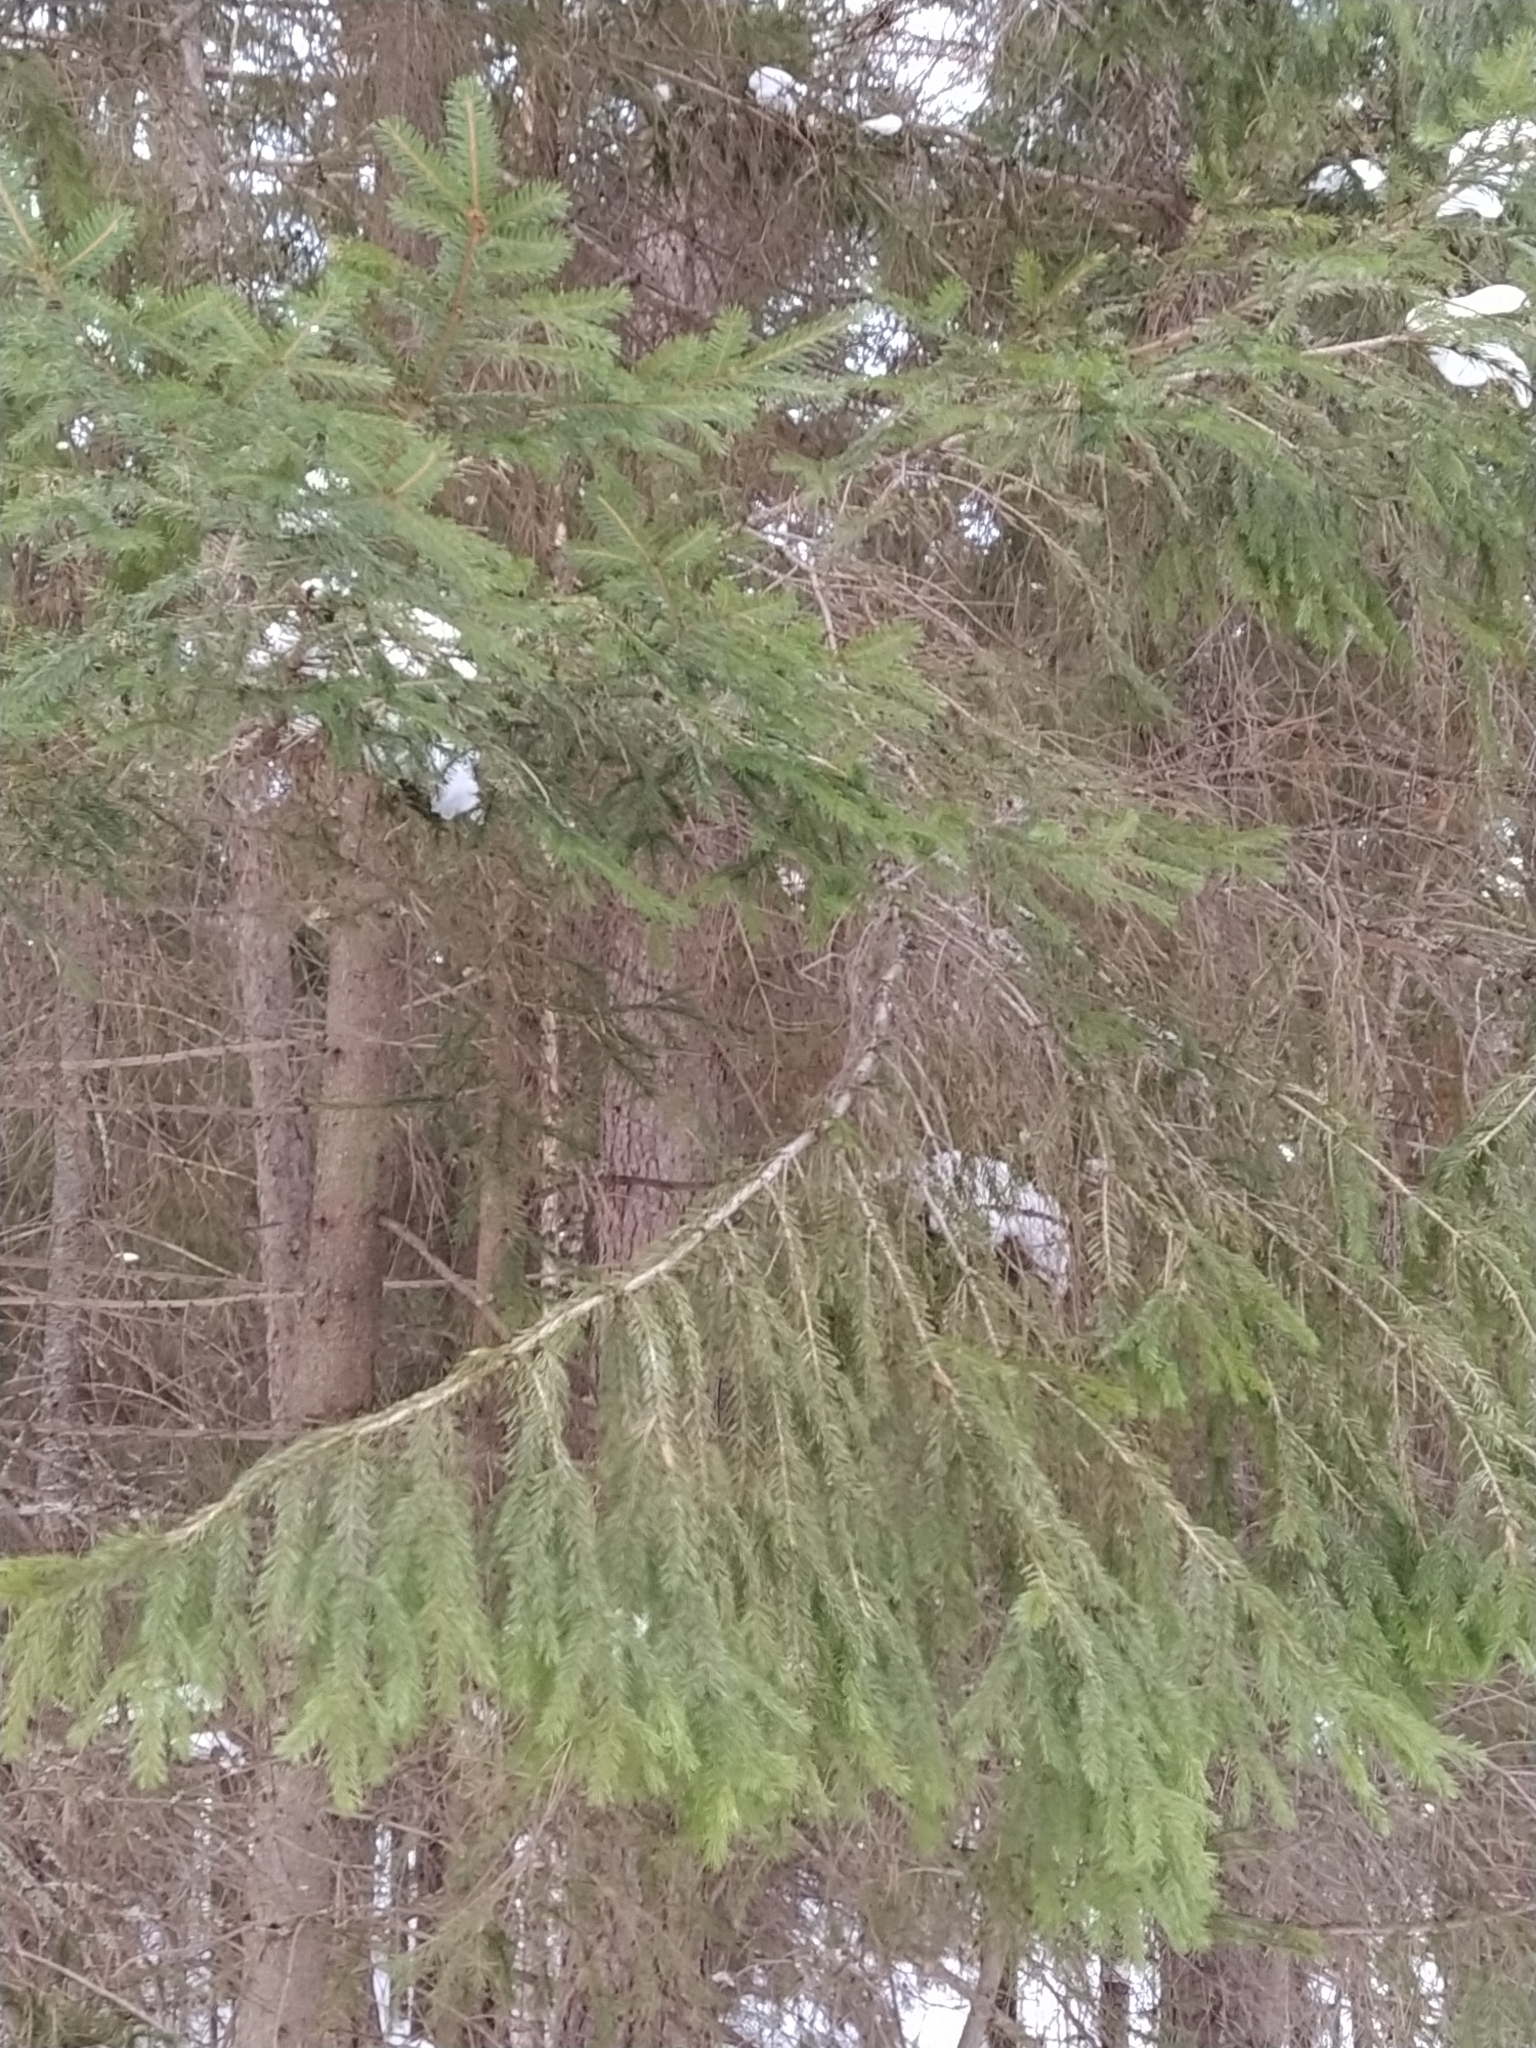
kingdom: Plantae
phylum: Tracheophyta
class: Pinopsida
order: Pinales
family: Pinaceae
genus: Picea
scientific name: Picea abies
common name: Norway spruce
